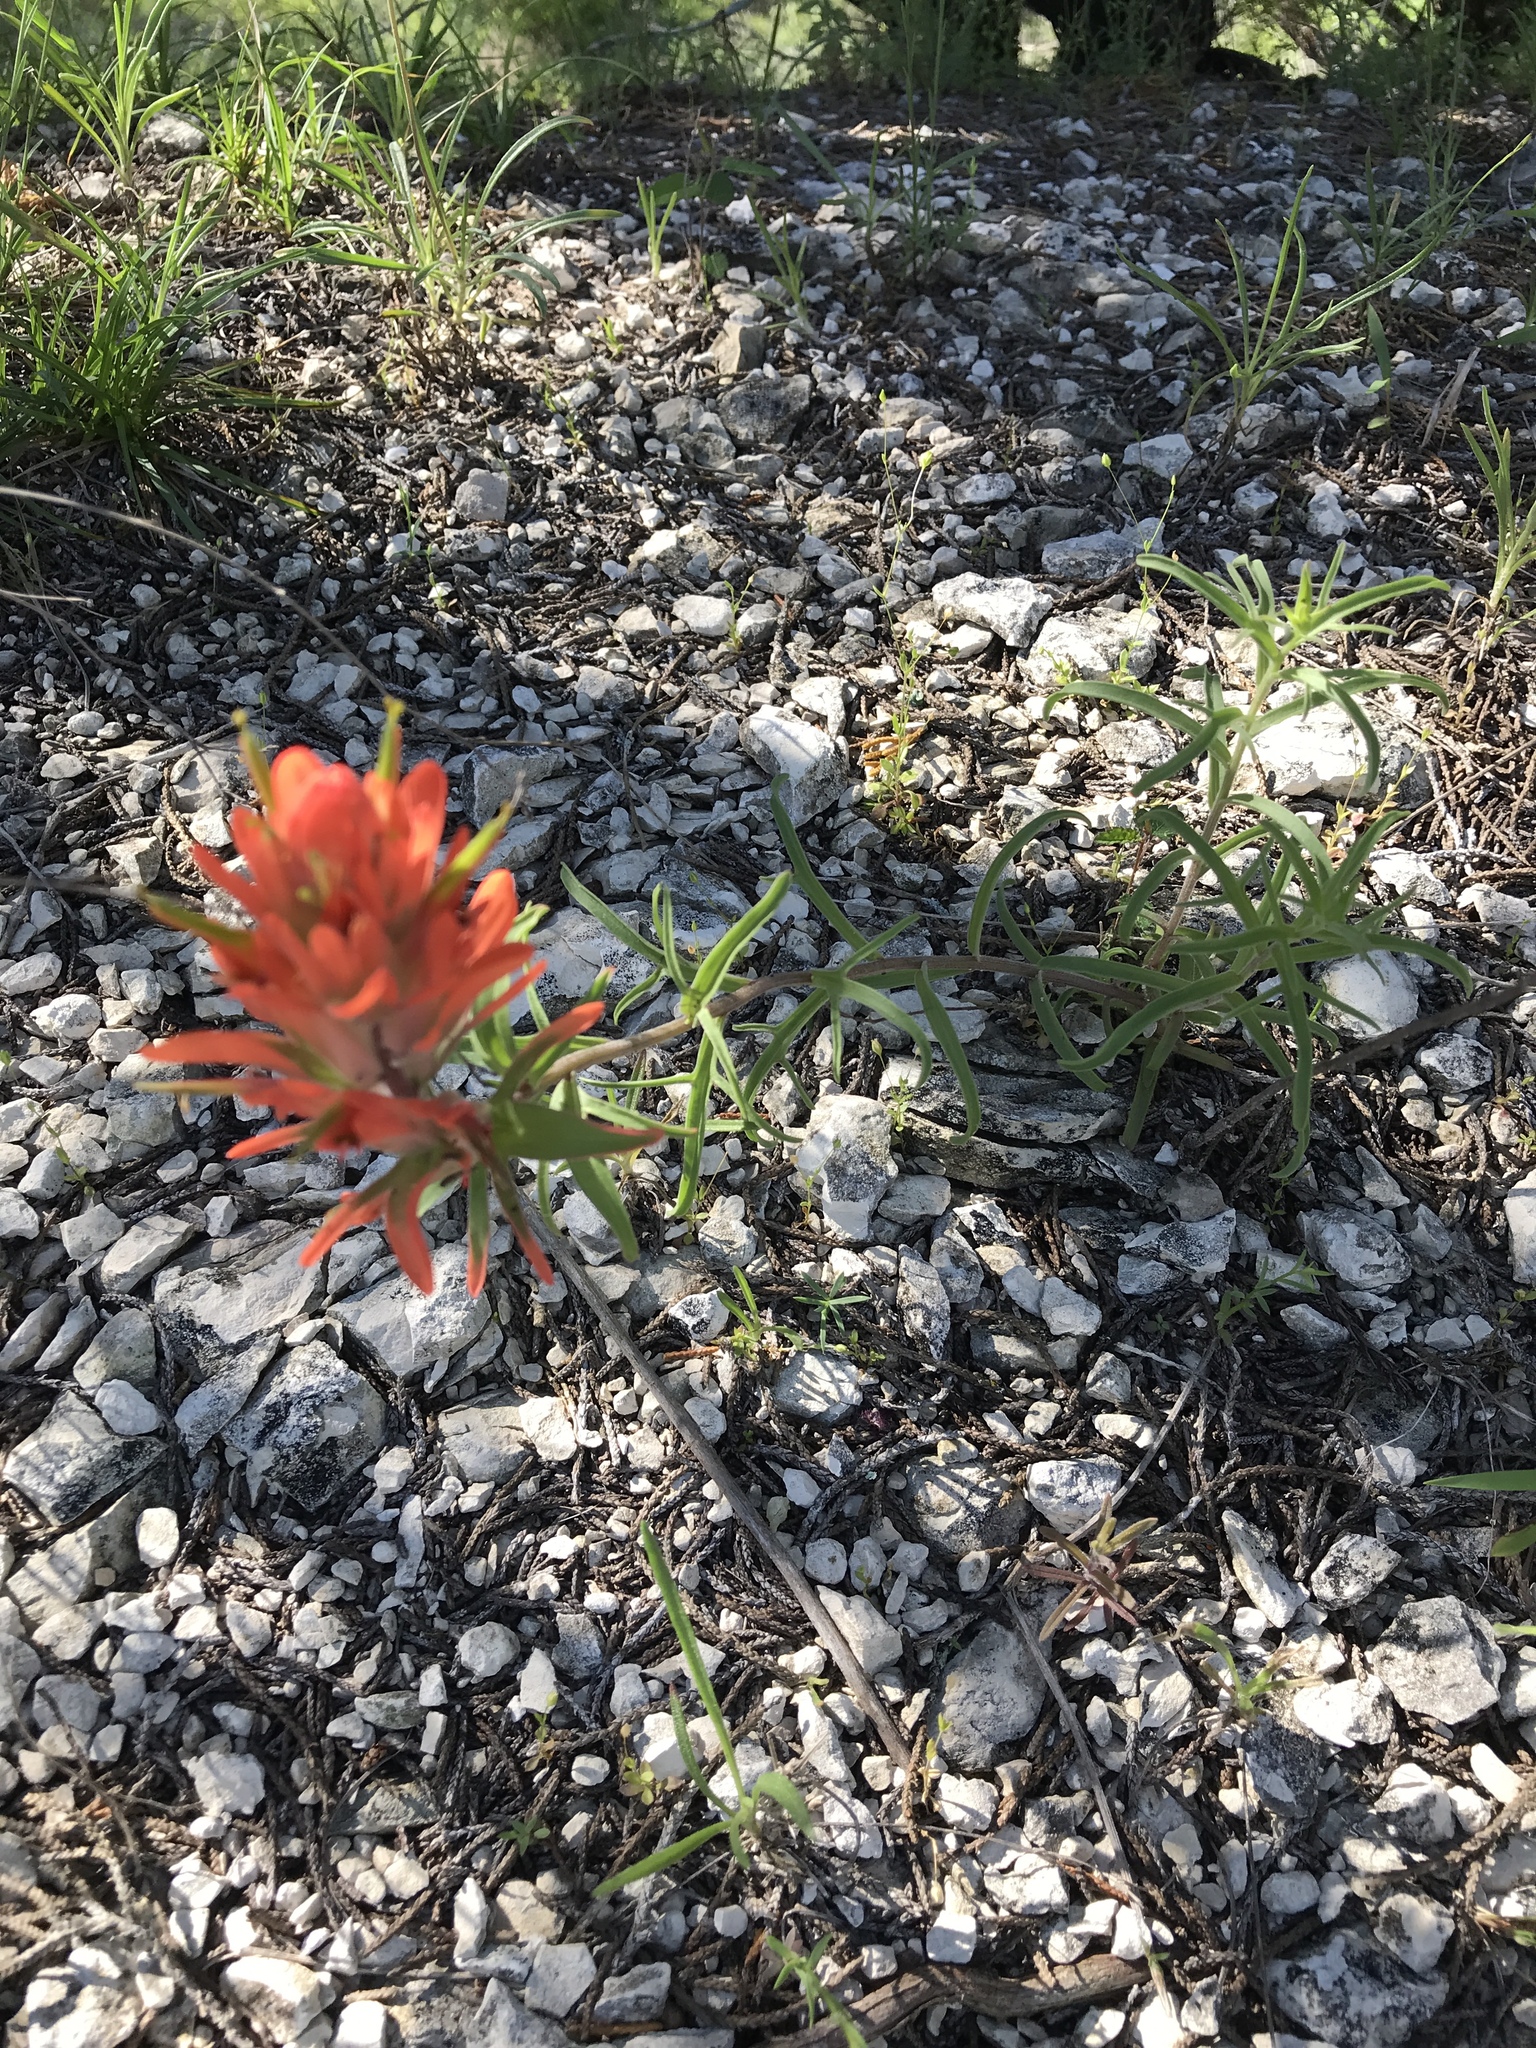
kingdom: Plantae
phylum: Tracheophyta
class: Magnoliopsida
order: Lamiales
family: Orobanchaceae
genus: Castilleja
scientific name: Castilleja lindheimeri
